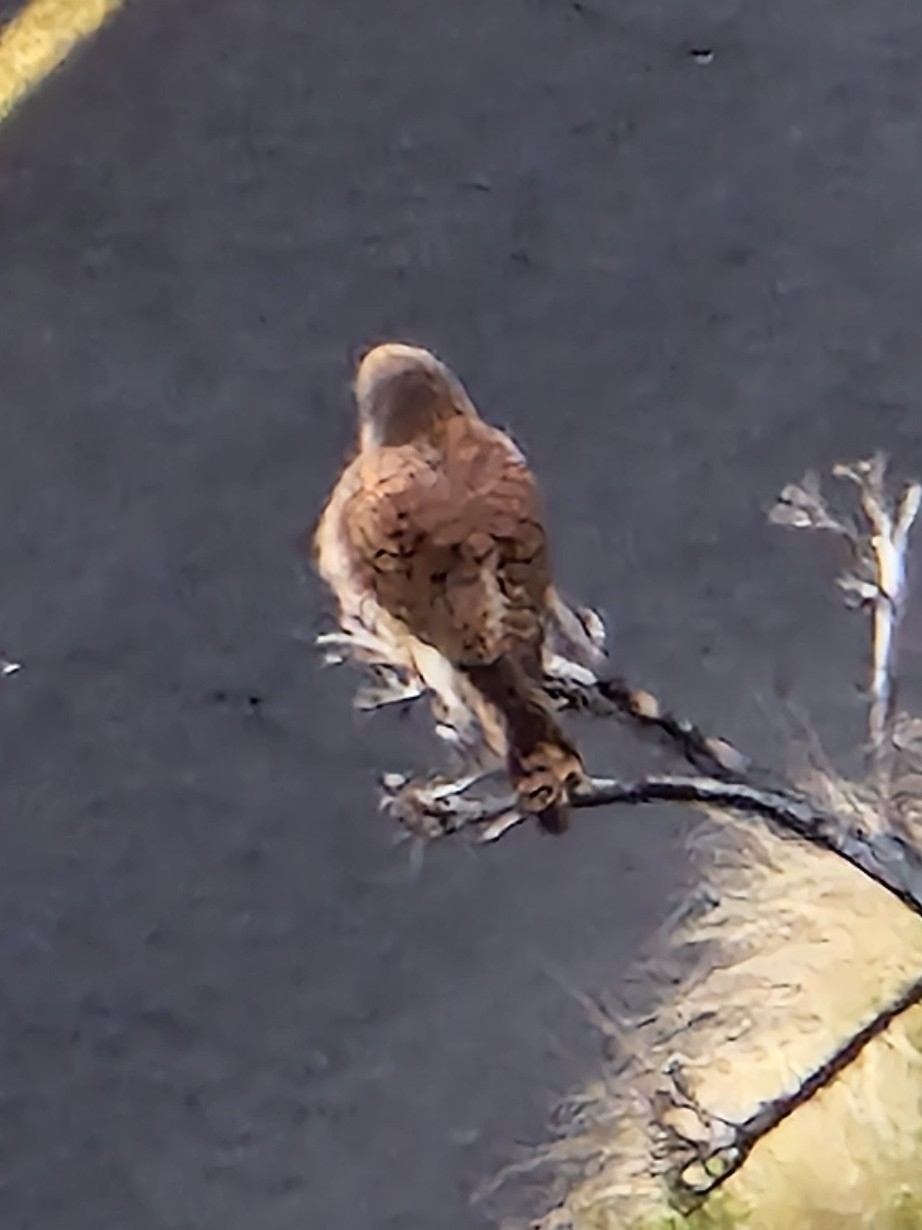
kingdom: Animalia
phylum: Chordata
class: Aves
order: Falconiformes
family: Falconidae
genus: Falco
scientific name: Falco tinnunculus
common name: Common kestrel
